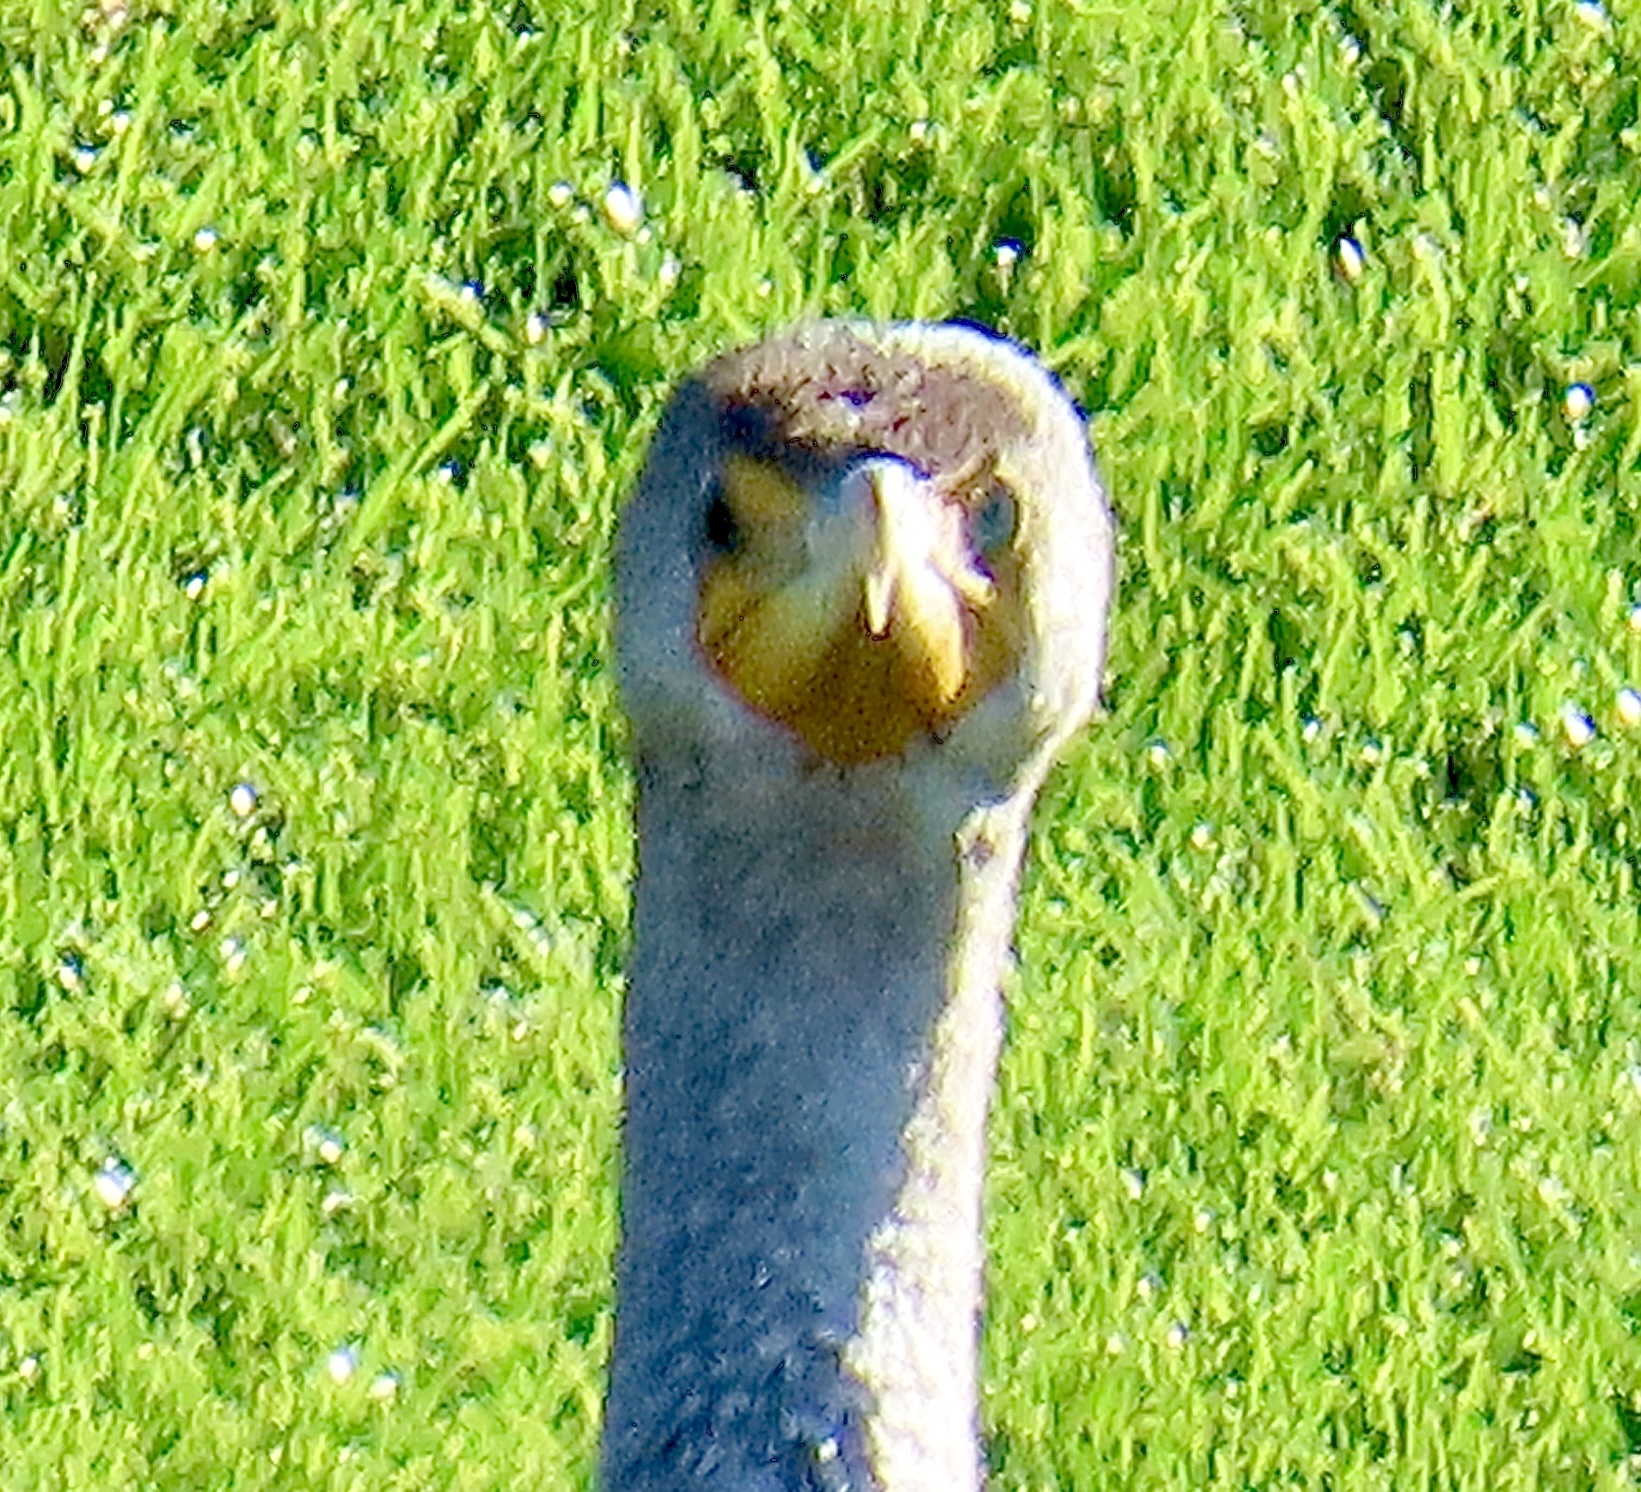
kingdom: Animalia
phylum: Chordata
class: Aves
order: Suliformes
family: Phalacrocoracidae
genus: Phalacrocorax
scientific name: Phalacrocorax auritus
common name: Double-crested cormorant
